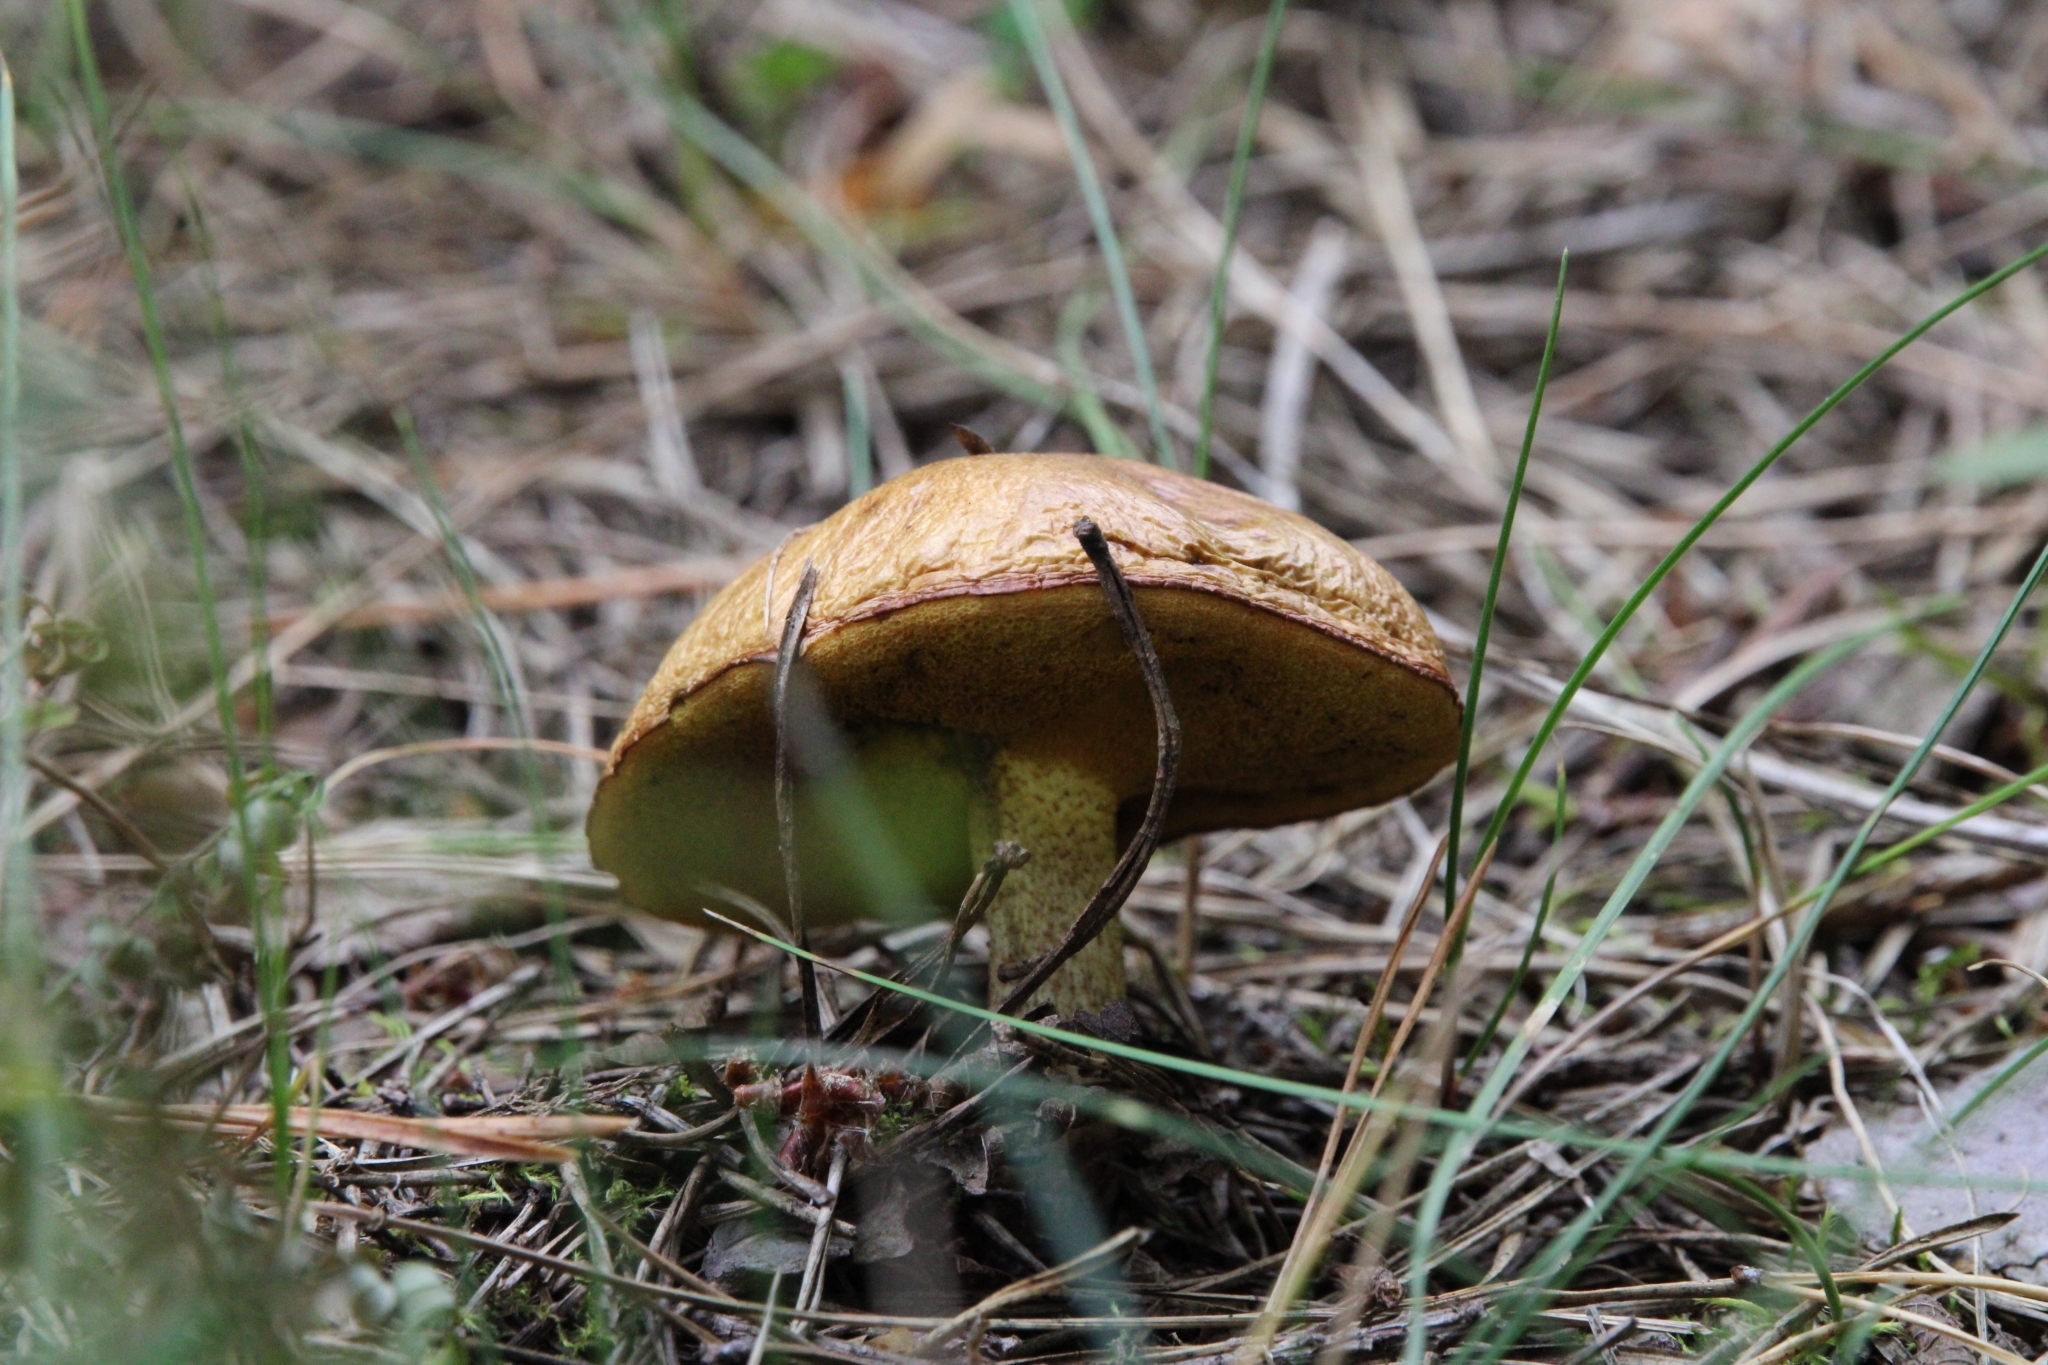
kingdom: Fungi
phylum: Basidiomycota
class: Agaricomycetes
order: Boletales
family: Suillaceae
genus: Suillus
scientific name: Suillus granulatus
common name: Weeping bolete
